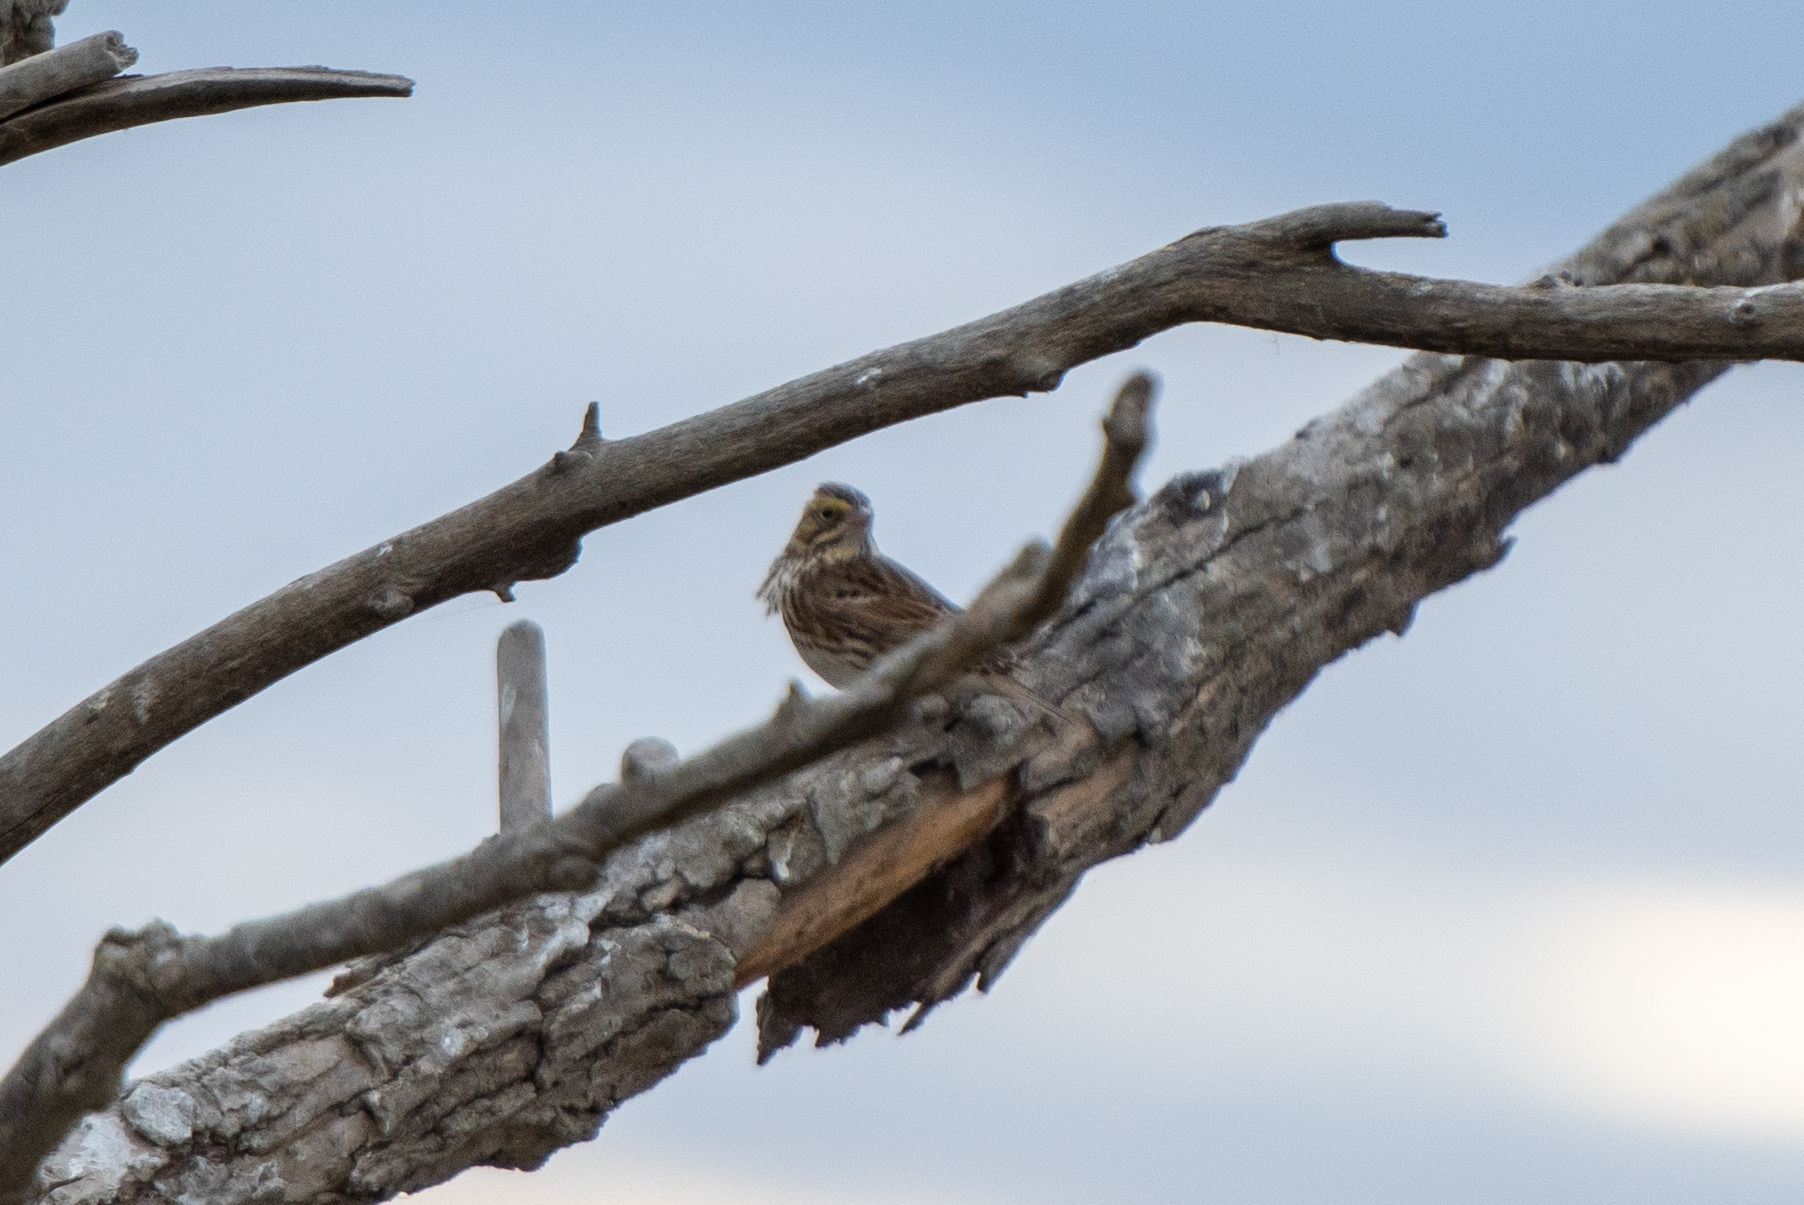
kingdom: Animalia
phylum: Chordata
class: Aves
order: Passeriformes
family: Passerellidae
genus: Passerculus
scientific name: Passerculus sandwichensis
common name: Savannah sparrow
